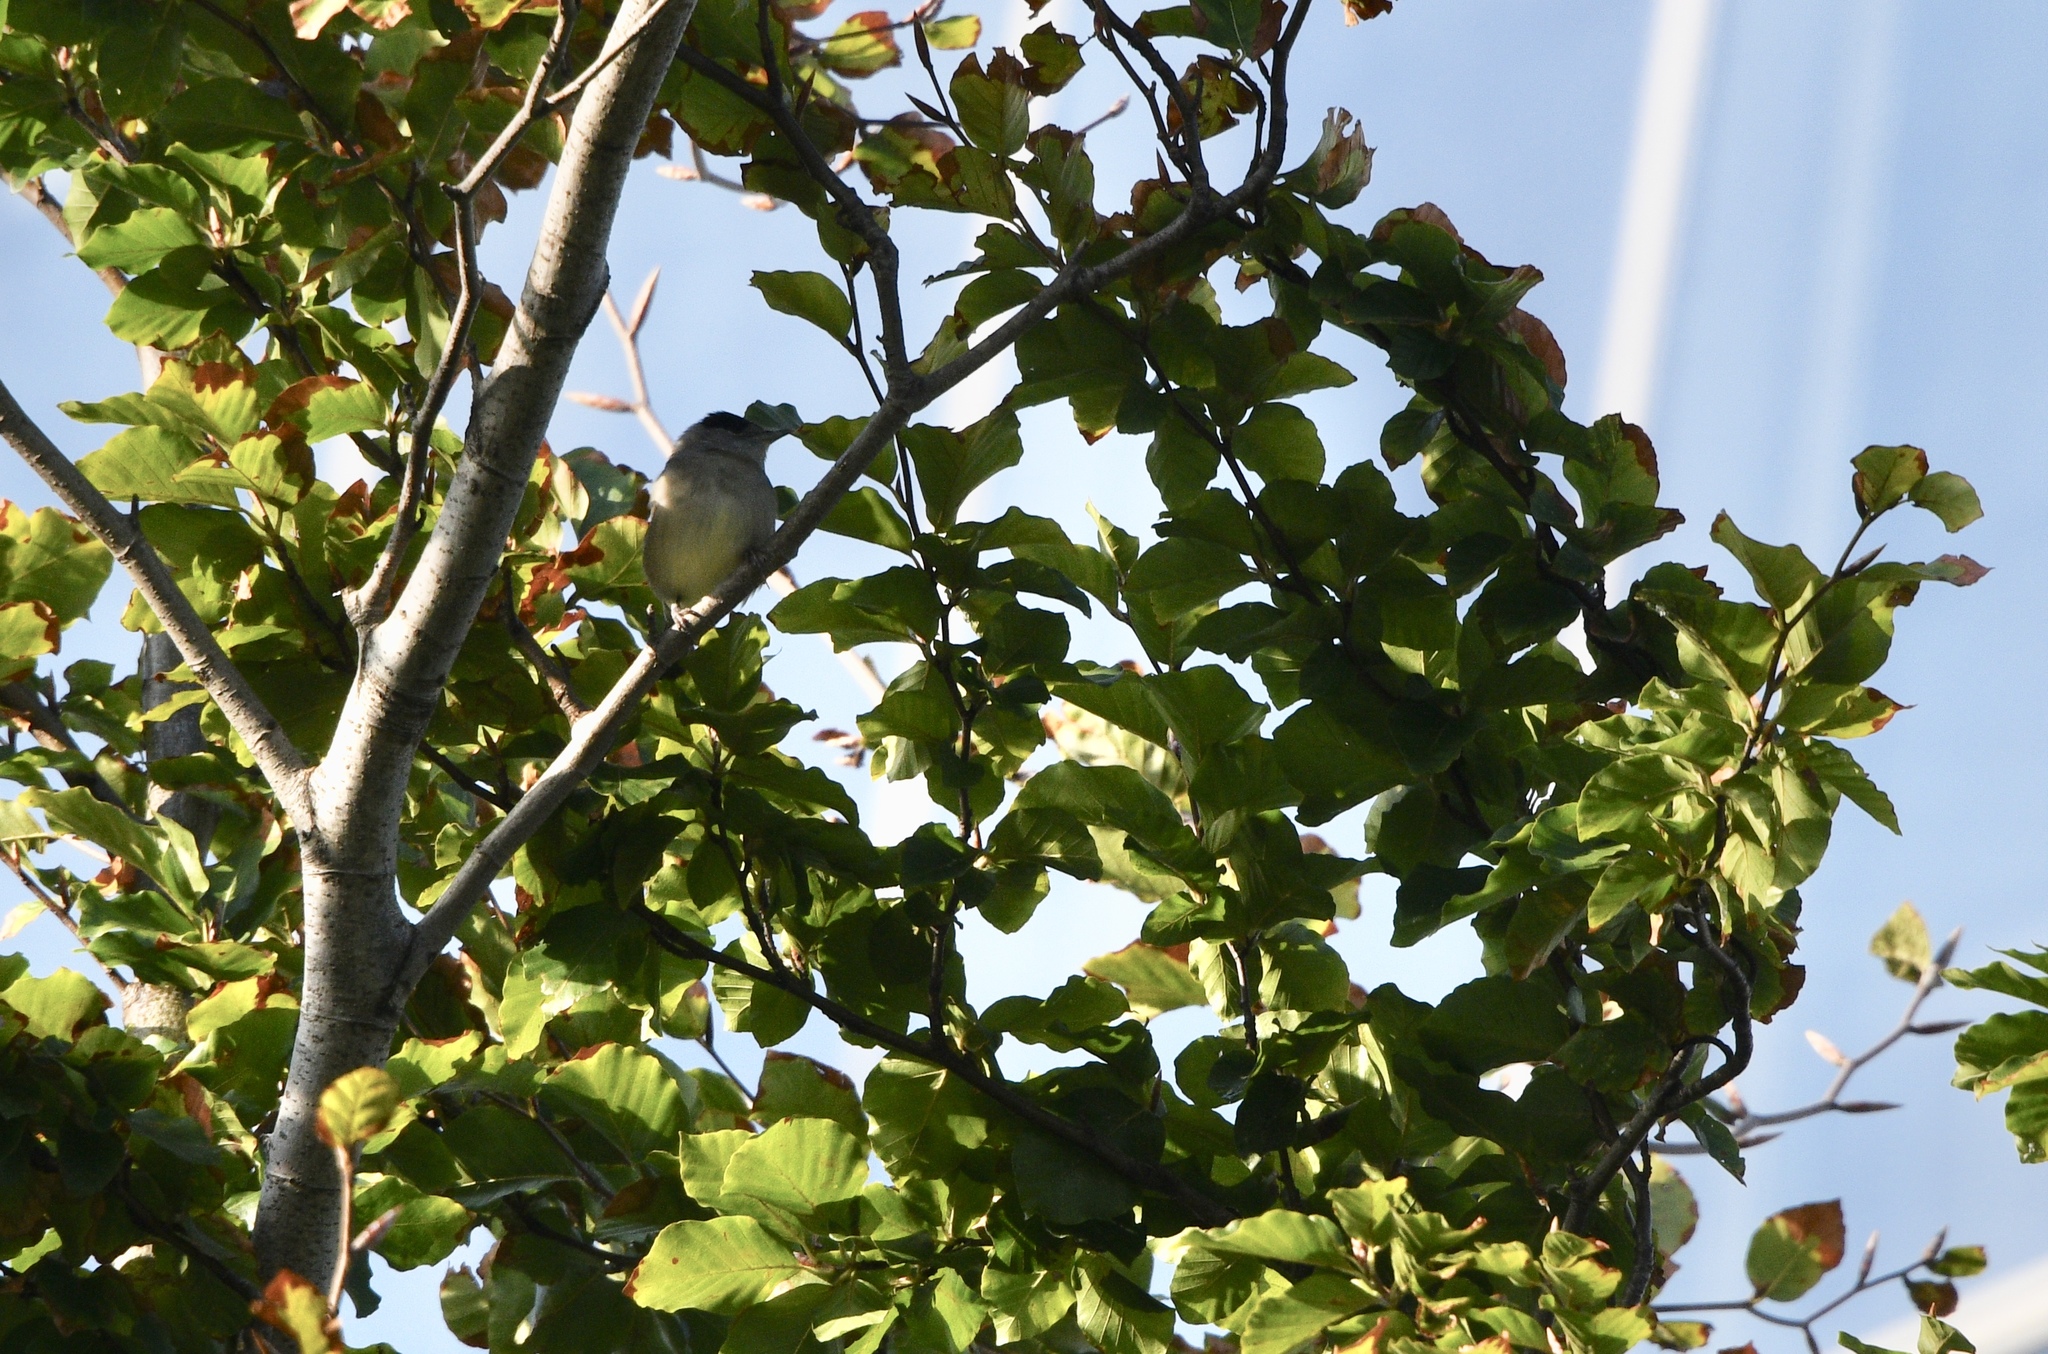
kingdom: Animalia
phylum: Chordata
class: Aves
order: Passeriformes
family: Sylviidae
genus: Sylvia
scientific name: Sylvia atricapilla
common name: Eurasian blackcap
